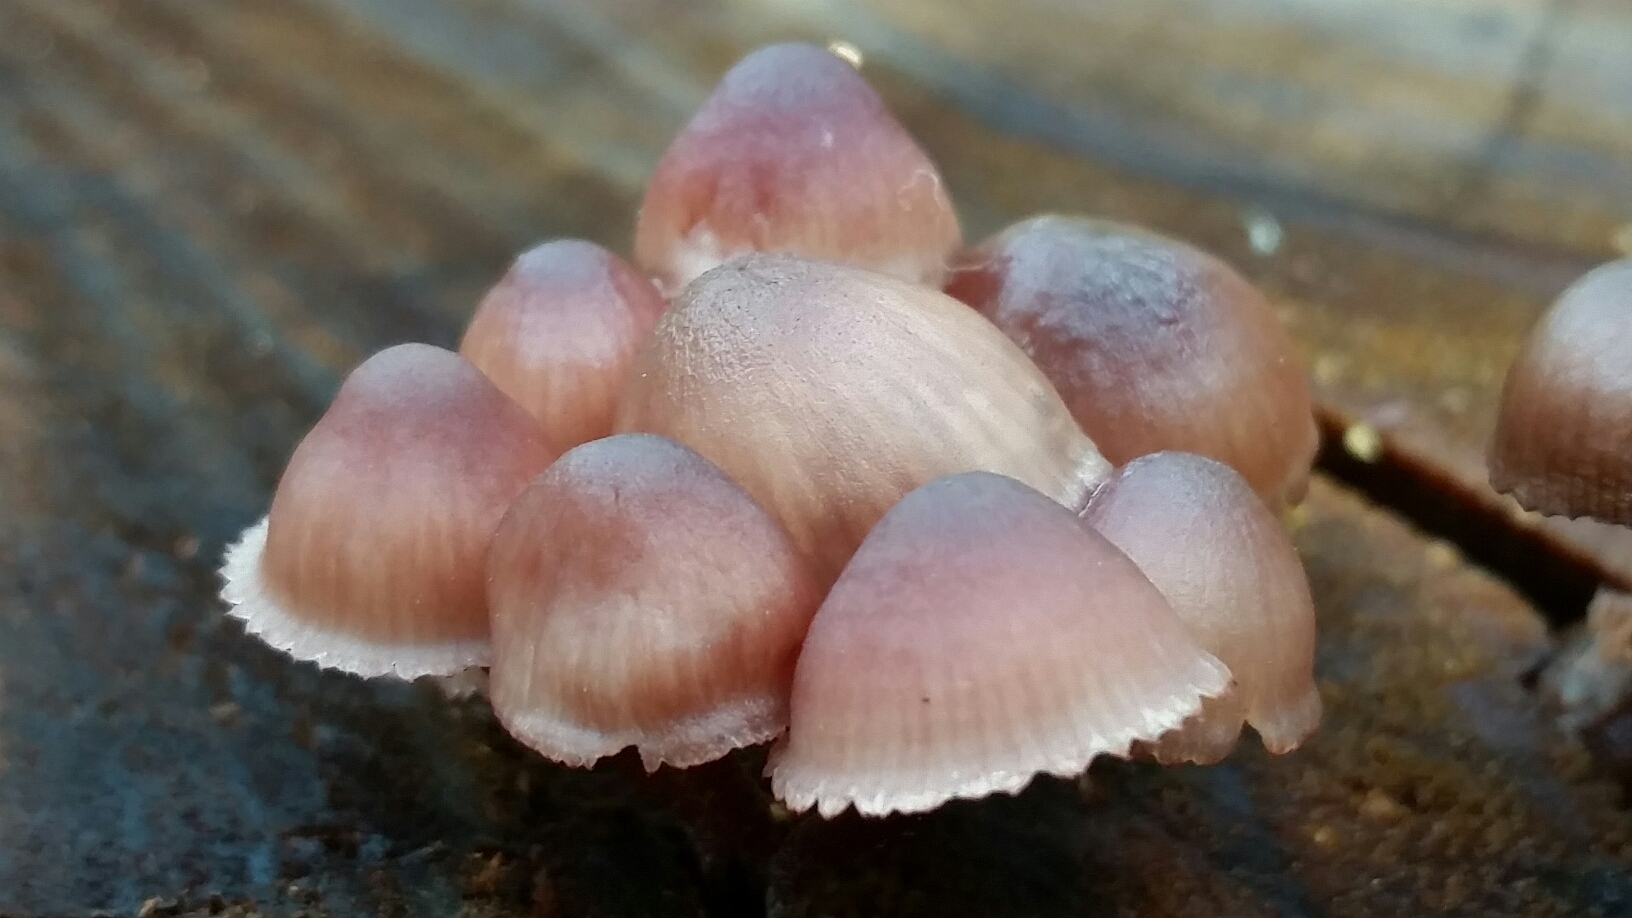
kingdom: Fungi
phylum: Basidiomycota
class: Agaricomycetes
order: Agaricales
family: Mycenaceae
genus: Mycena
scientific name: Mycena haematopus
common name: Burgundydrop bonnet
